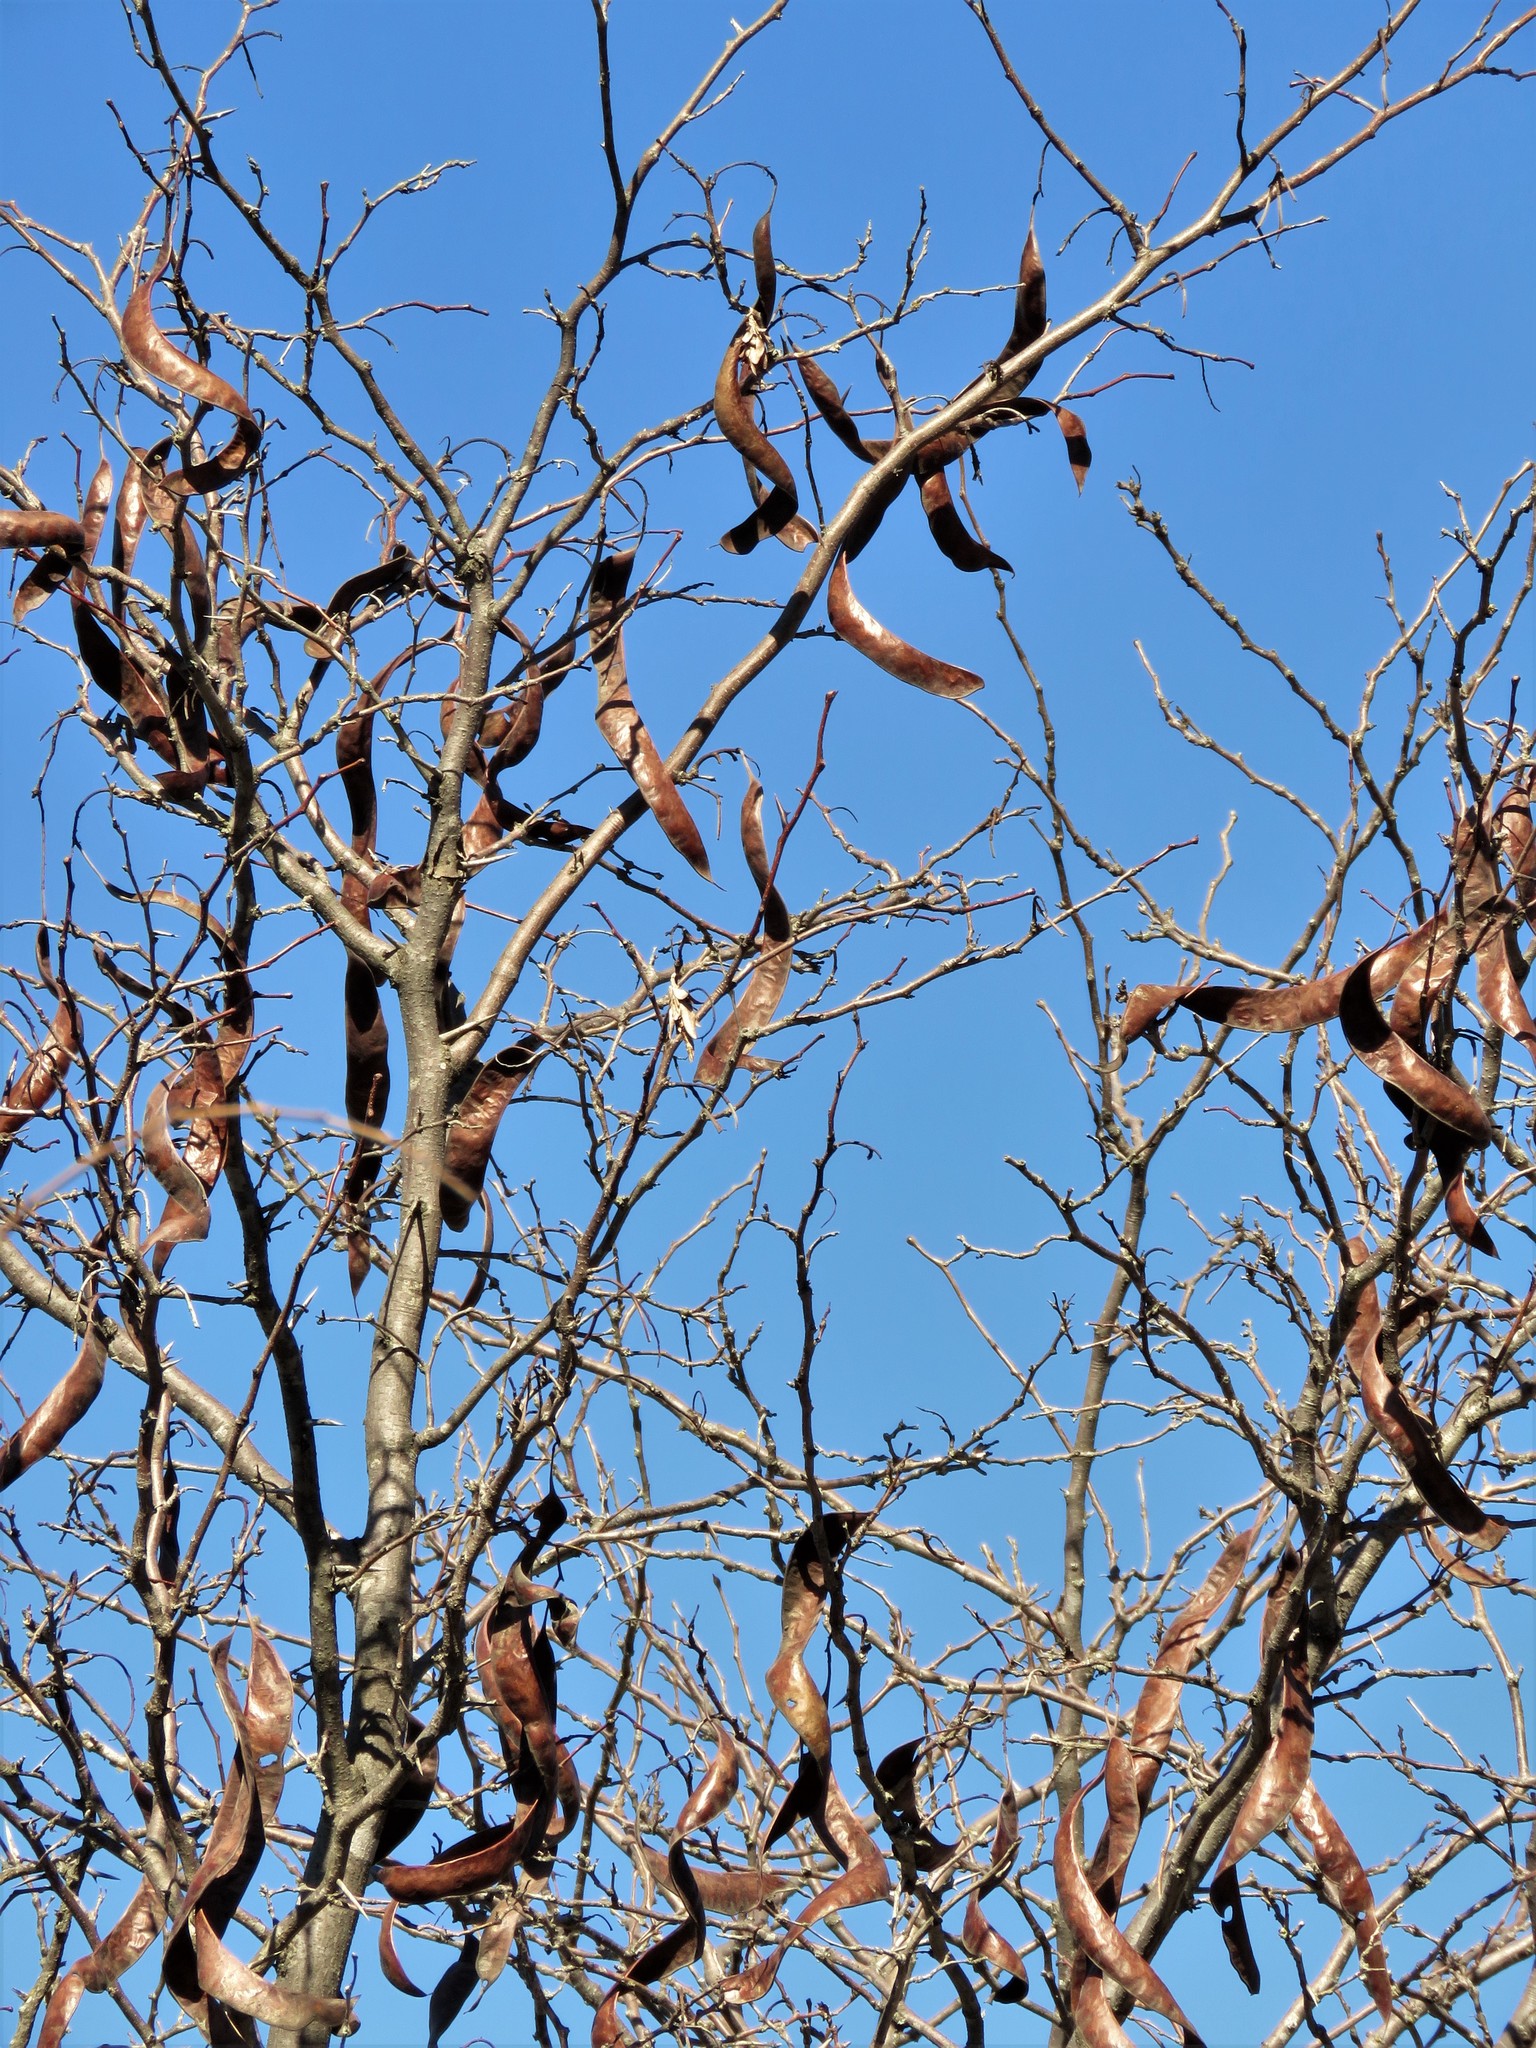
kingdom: Plantae
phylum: Tracheophyta
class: Magnoliopsida
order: Fabales
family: Fabaceae
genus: Gleditsia
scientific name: Gleditsia triacanthos
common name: Common honeylocust
